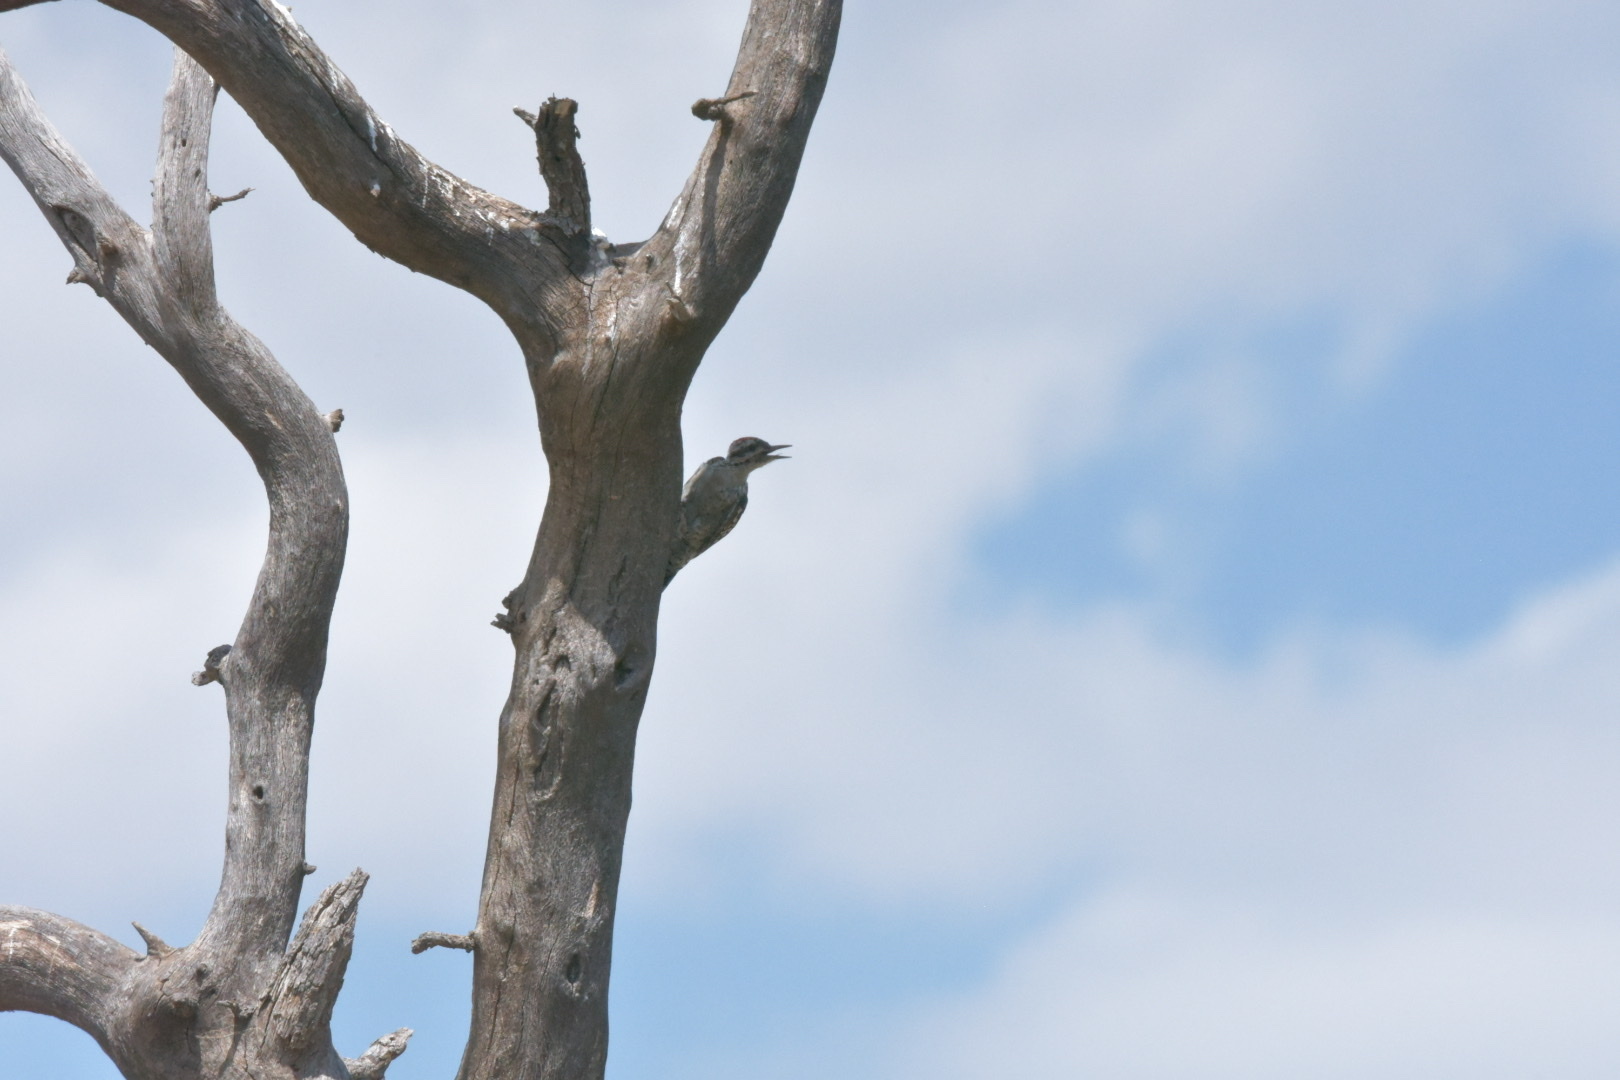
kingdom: Animalia
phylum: Chordata
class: Aves
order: Piciformes
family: Picidae
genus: Dryobates
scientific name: Dryobates scalaris
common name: Ladder-backed woodpecker
